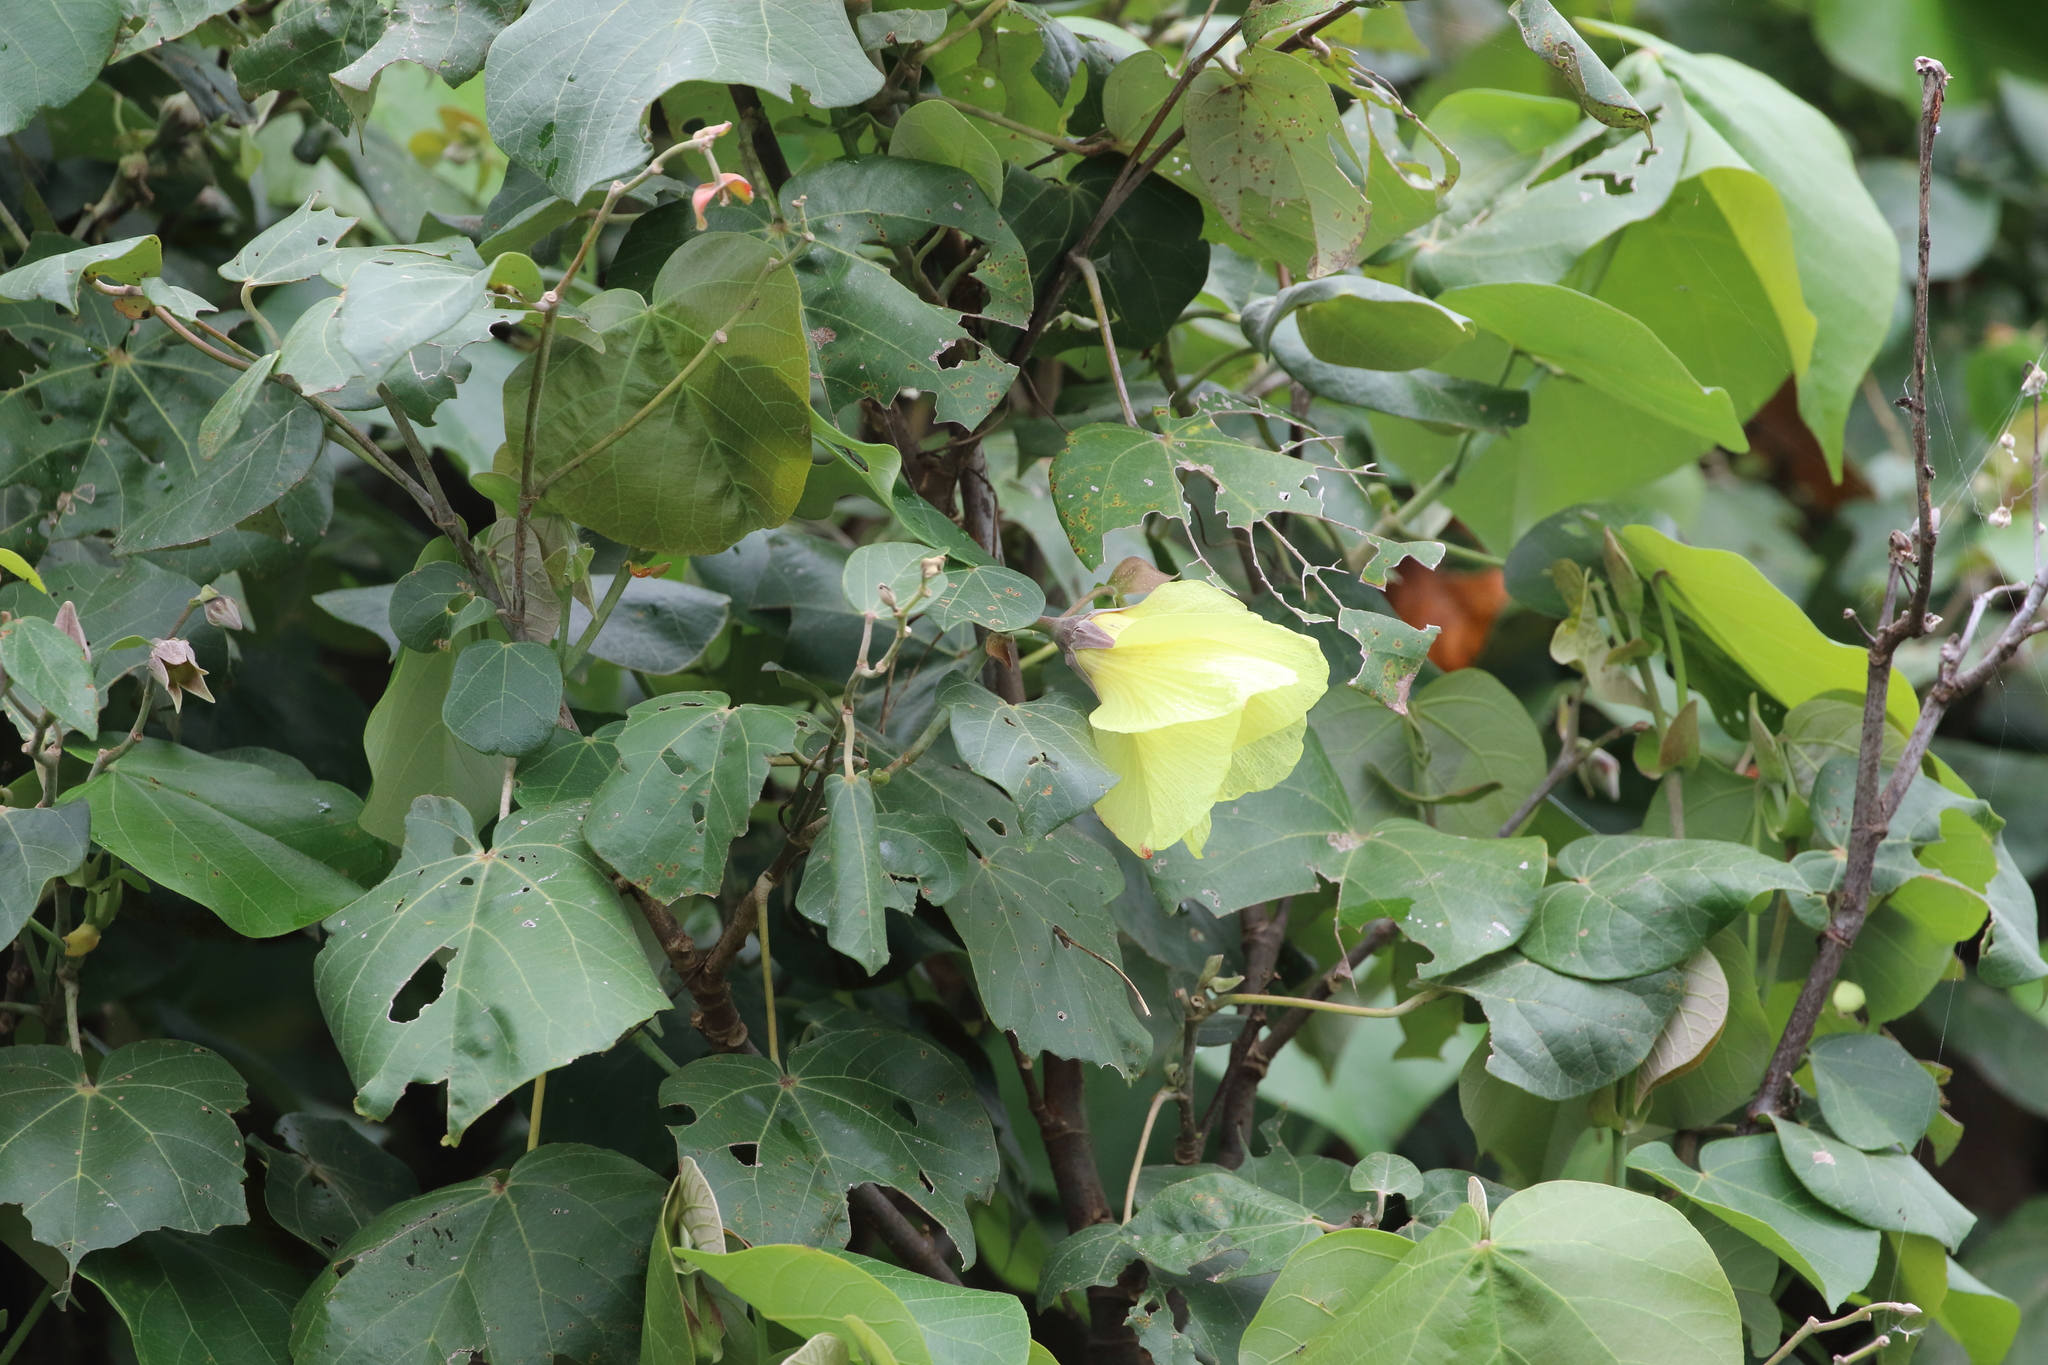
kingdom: Plantae
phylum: Tracheophyta
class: Magnoliopsida
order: Malvales
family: Malvaceae
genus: Talipariti
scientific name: Talipariti tiliaceum
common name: Sea hibiscus
